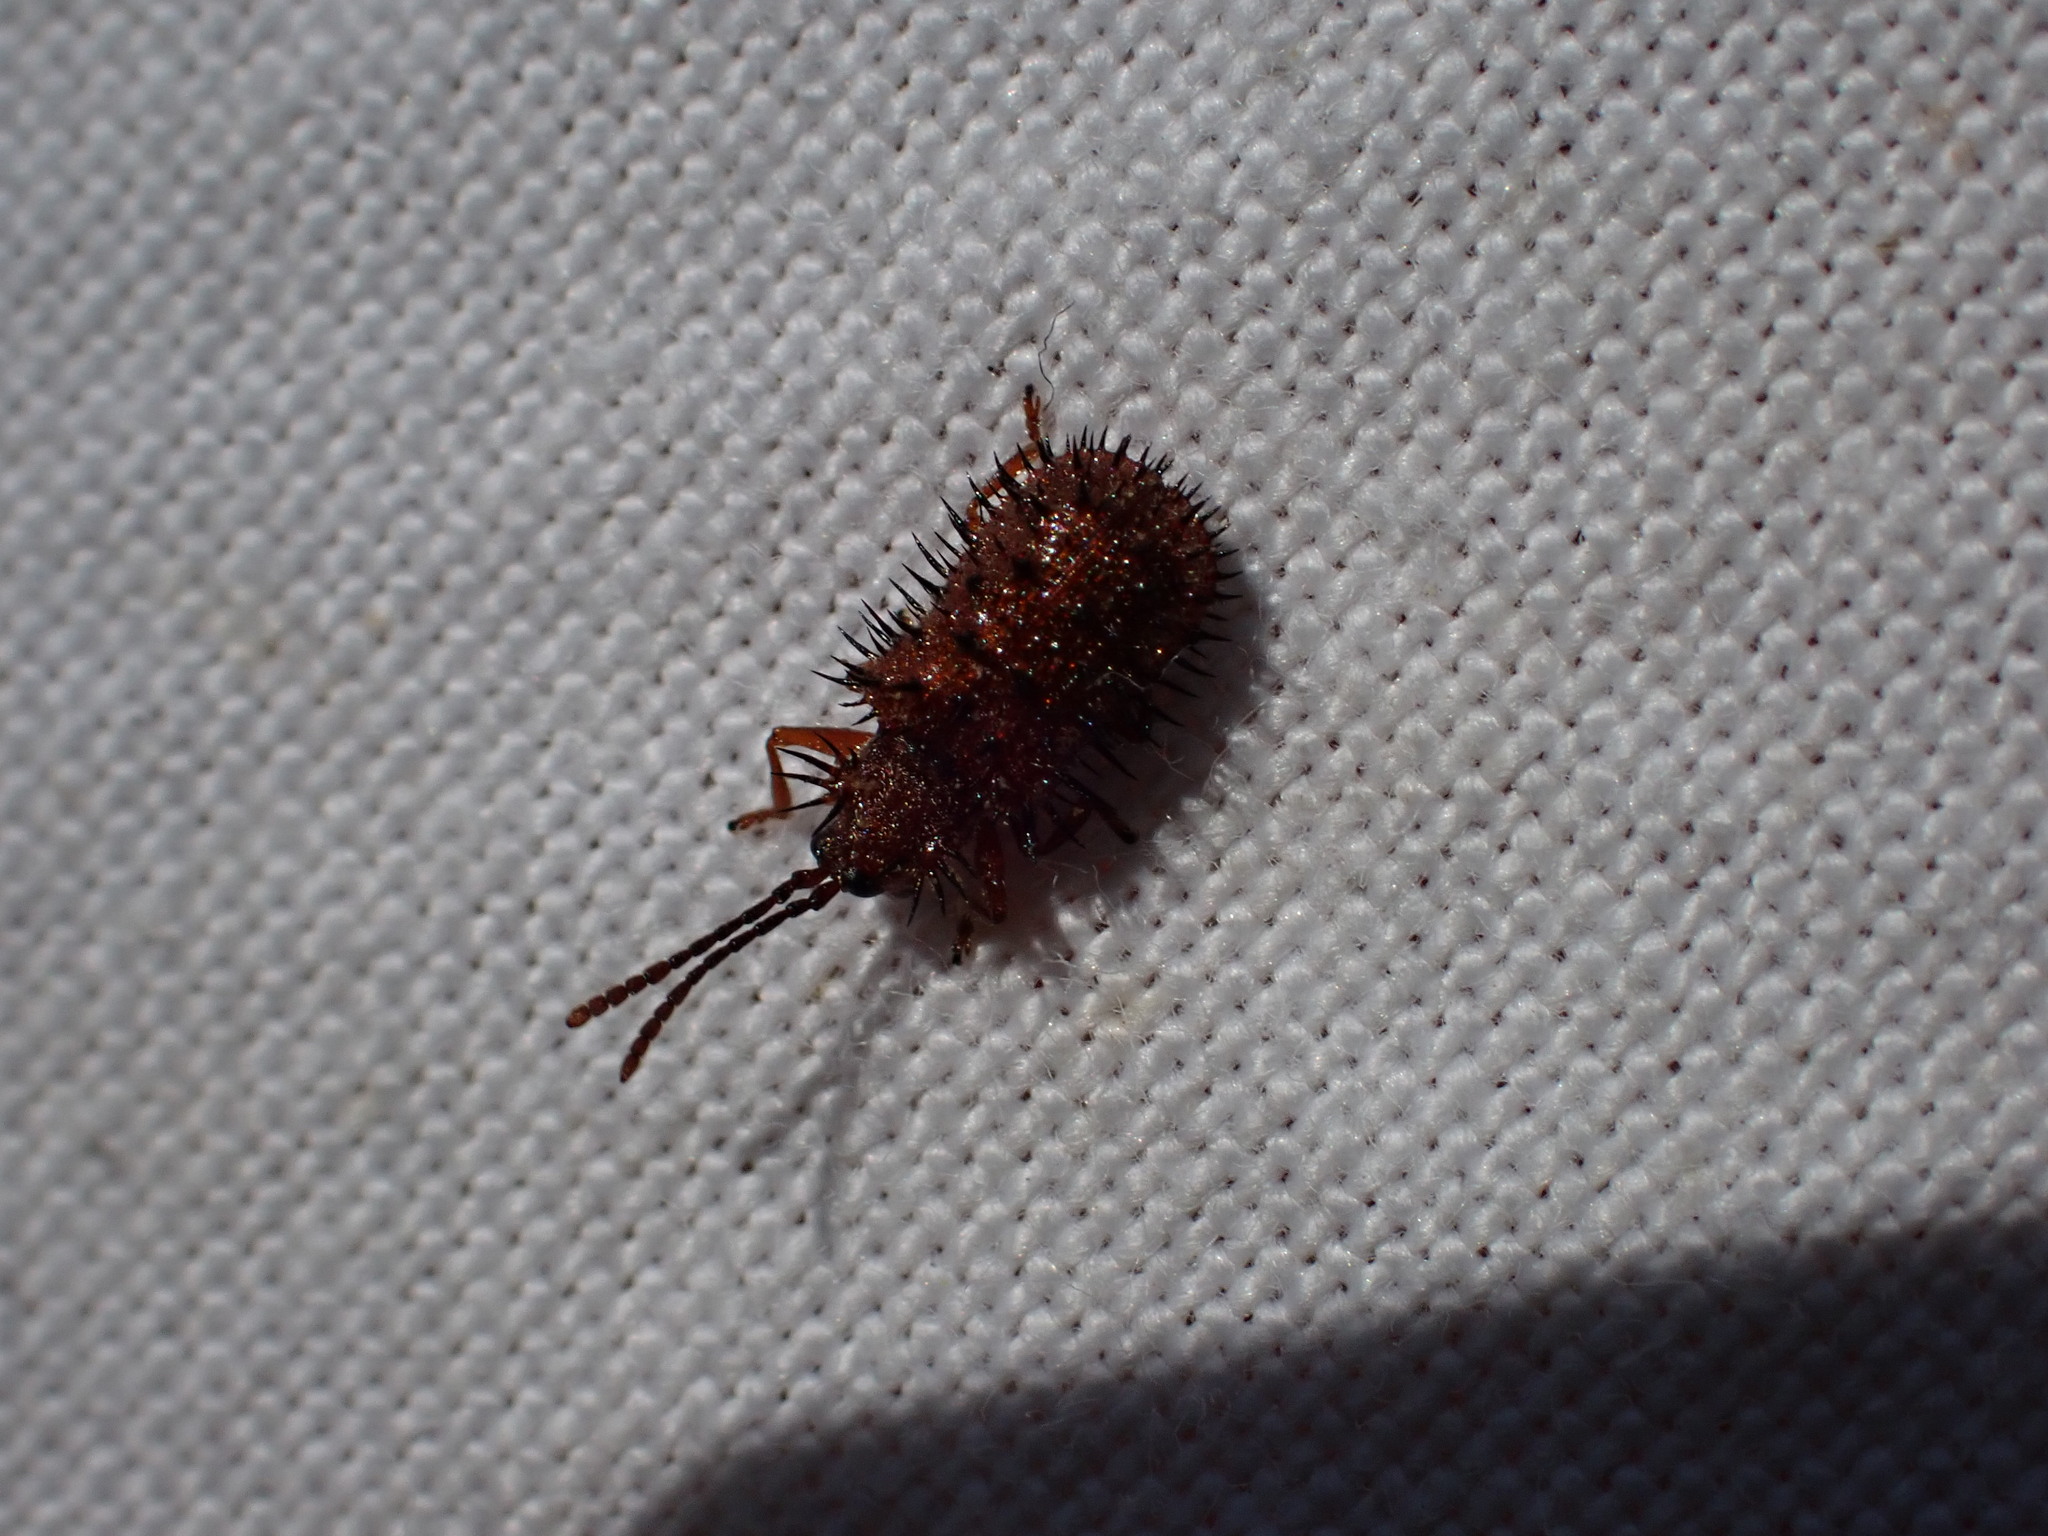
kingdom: Animalia
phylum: Arthropoda
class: Insecta
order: Coleoptera
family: Chrysomelidae
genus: Dicladispa
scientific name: Dicladispa testacea
